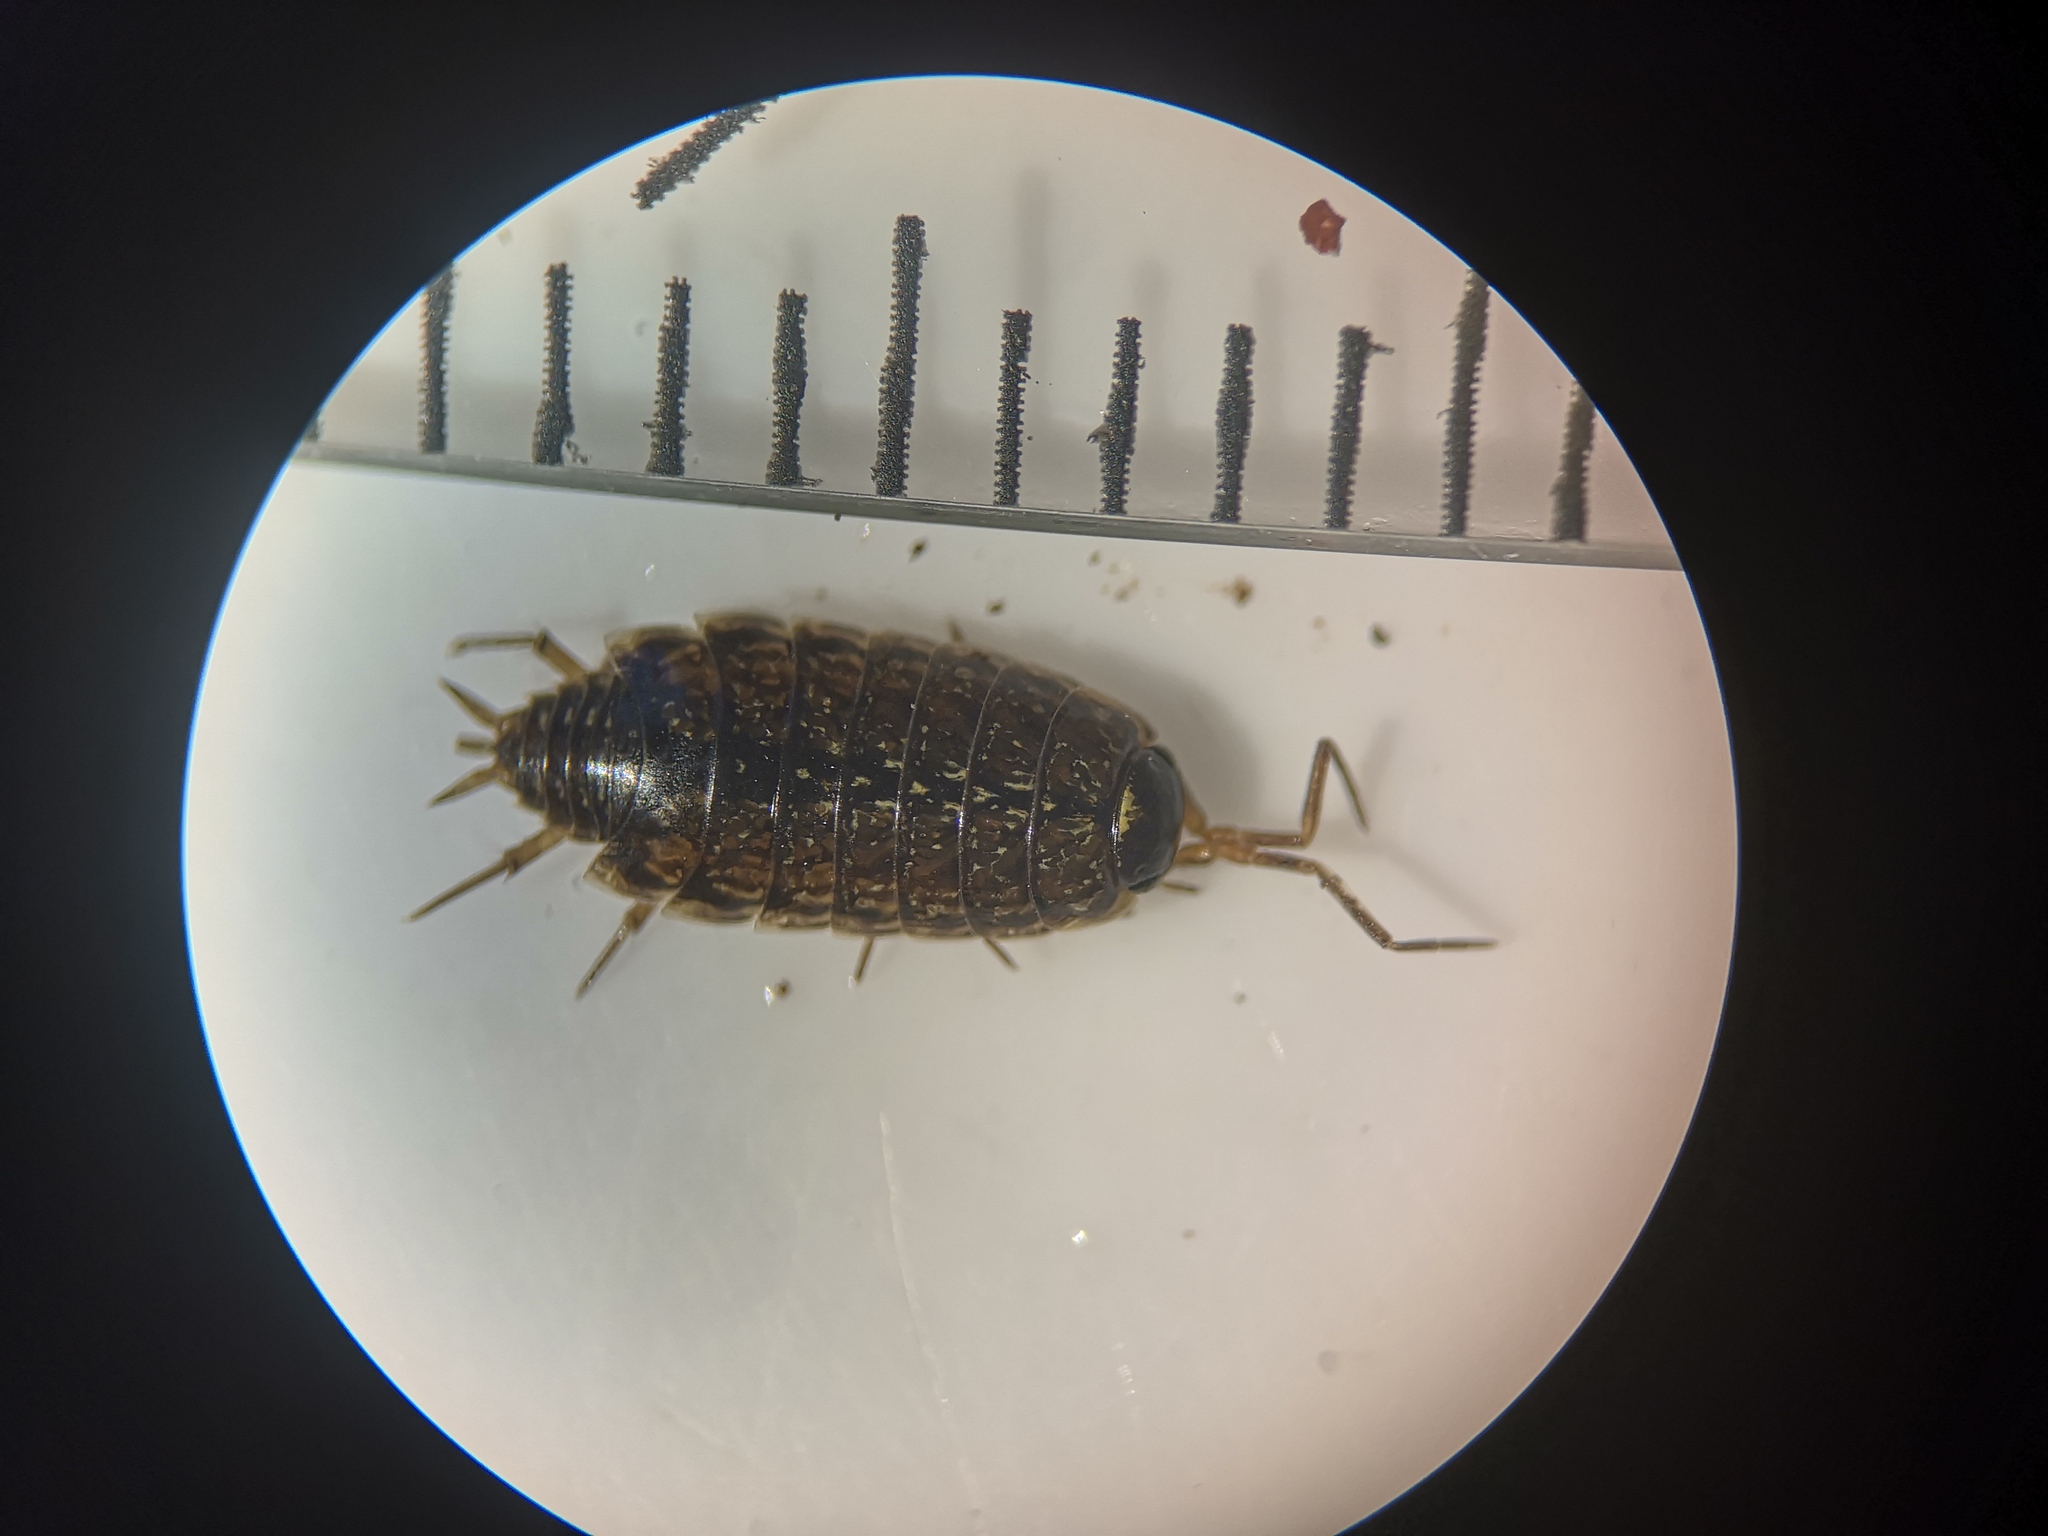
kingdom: Animalia
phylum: Arthropoda
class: Malacostraca
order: Isopoda
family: Philosciidae
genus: Philoscia
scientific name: Philoscia muscorum
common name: Common striped woodlouse
